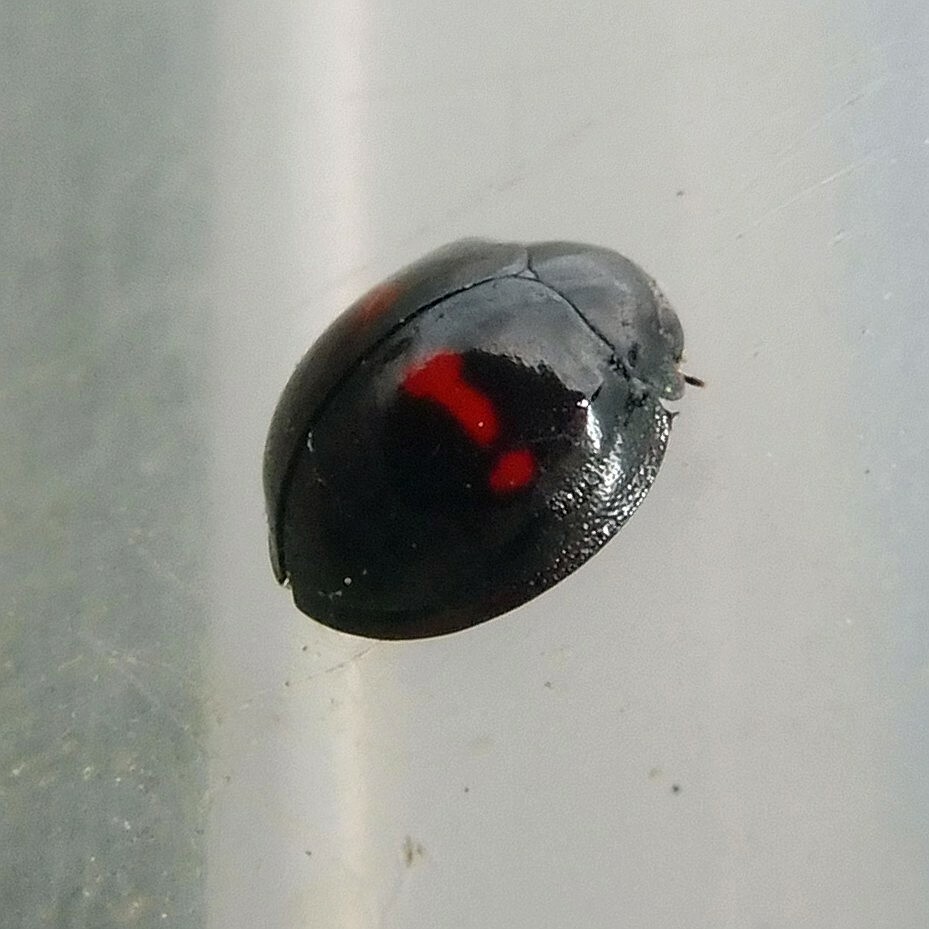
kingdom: Animalia
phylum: Arthropoda
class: Insecta
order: Coleoptera
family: Coccinellidae
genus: Chilocorus
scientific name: Chilocorus bipustulatus
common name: Heather ladybird
